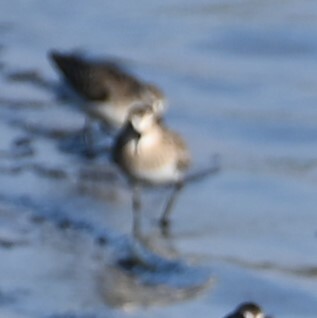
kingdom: Animalia
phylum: Chordata
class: Aves
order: Charadriiformes
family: Scolopacidae
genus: Calidris
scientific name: Calidris bairdii
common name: Baird's sandpiper
